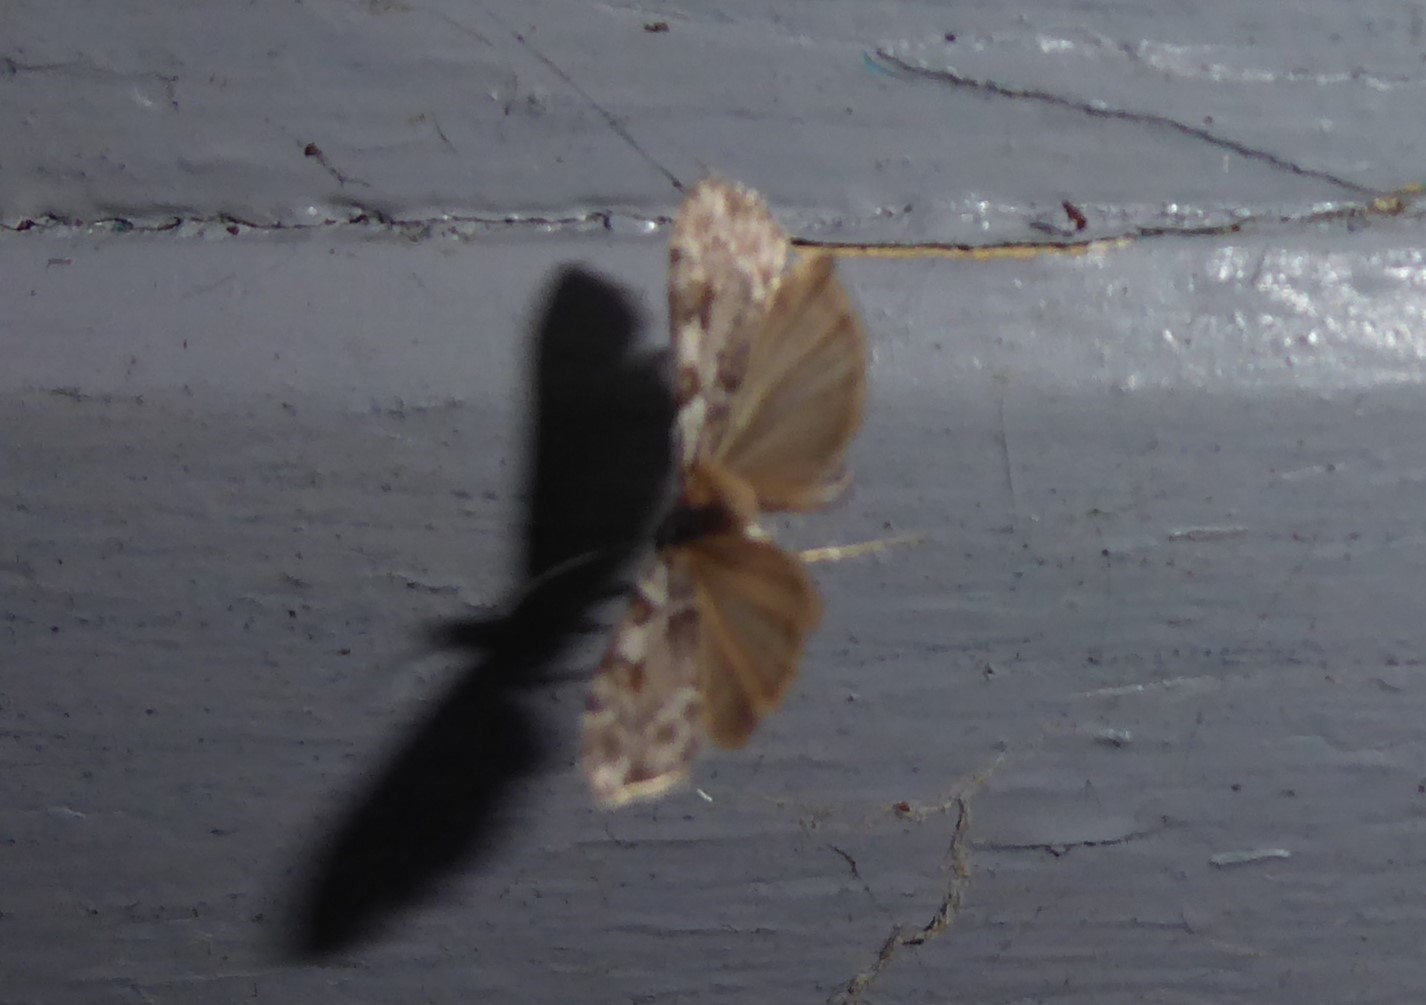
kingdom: Animalia
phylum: Arthropoda
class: Insecta
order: Lepidoptera
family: Crambidae
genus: Scoparia
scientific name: Scoparia halopis
